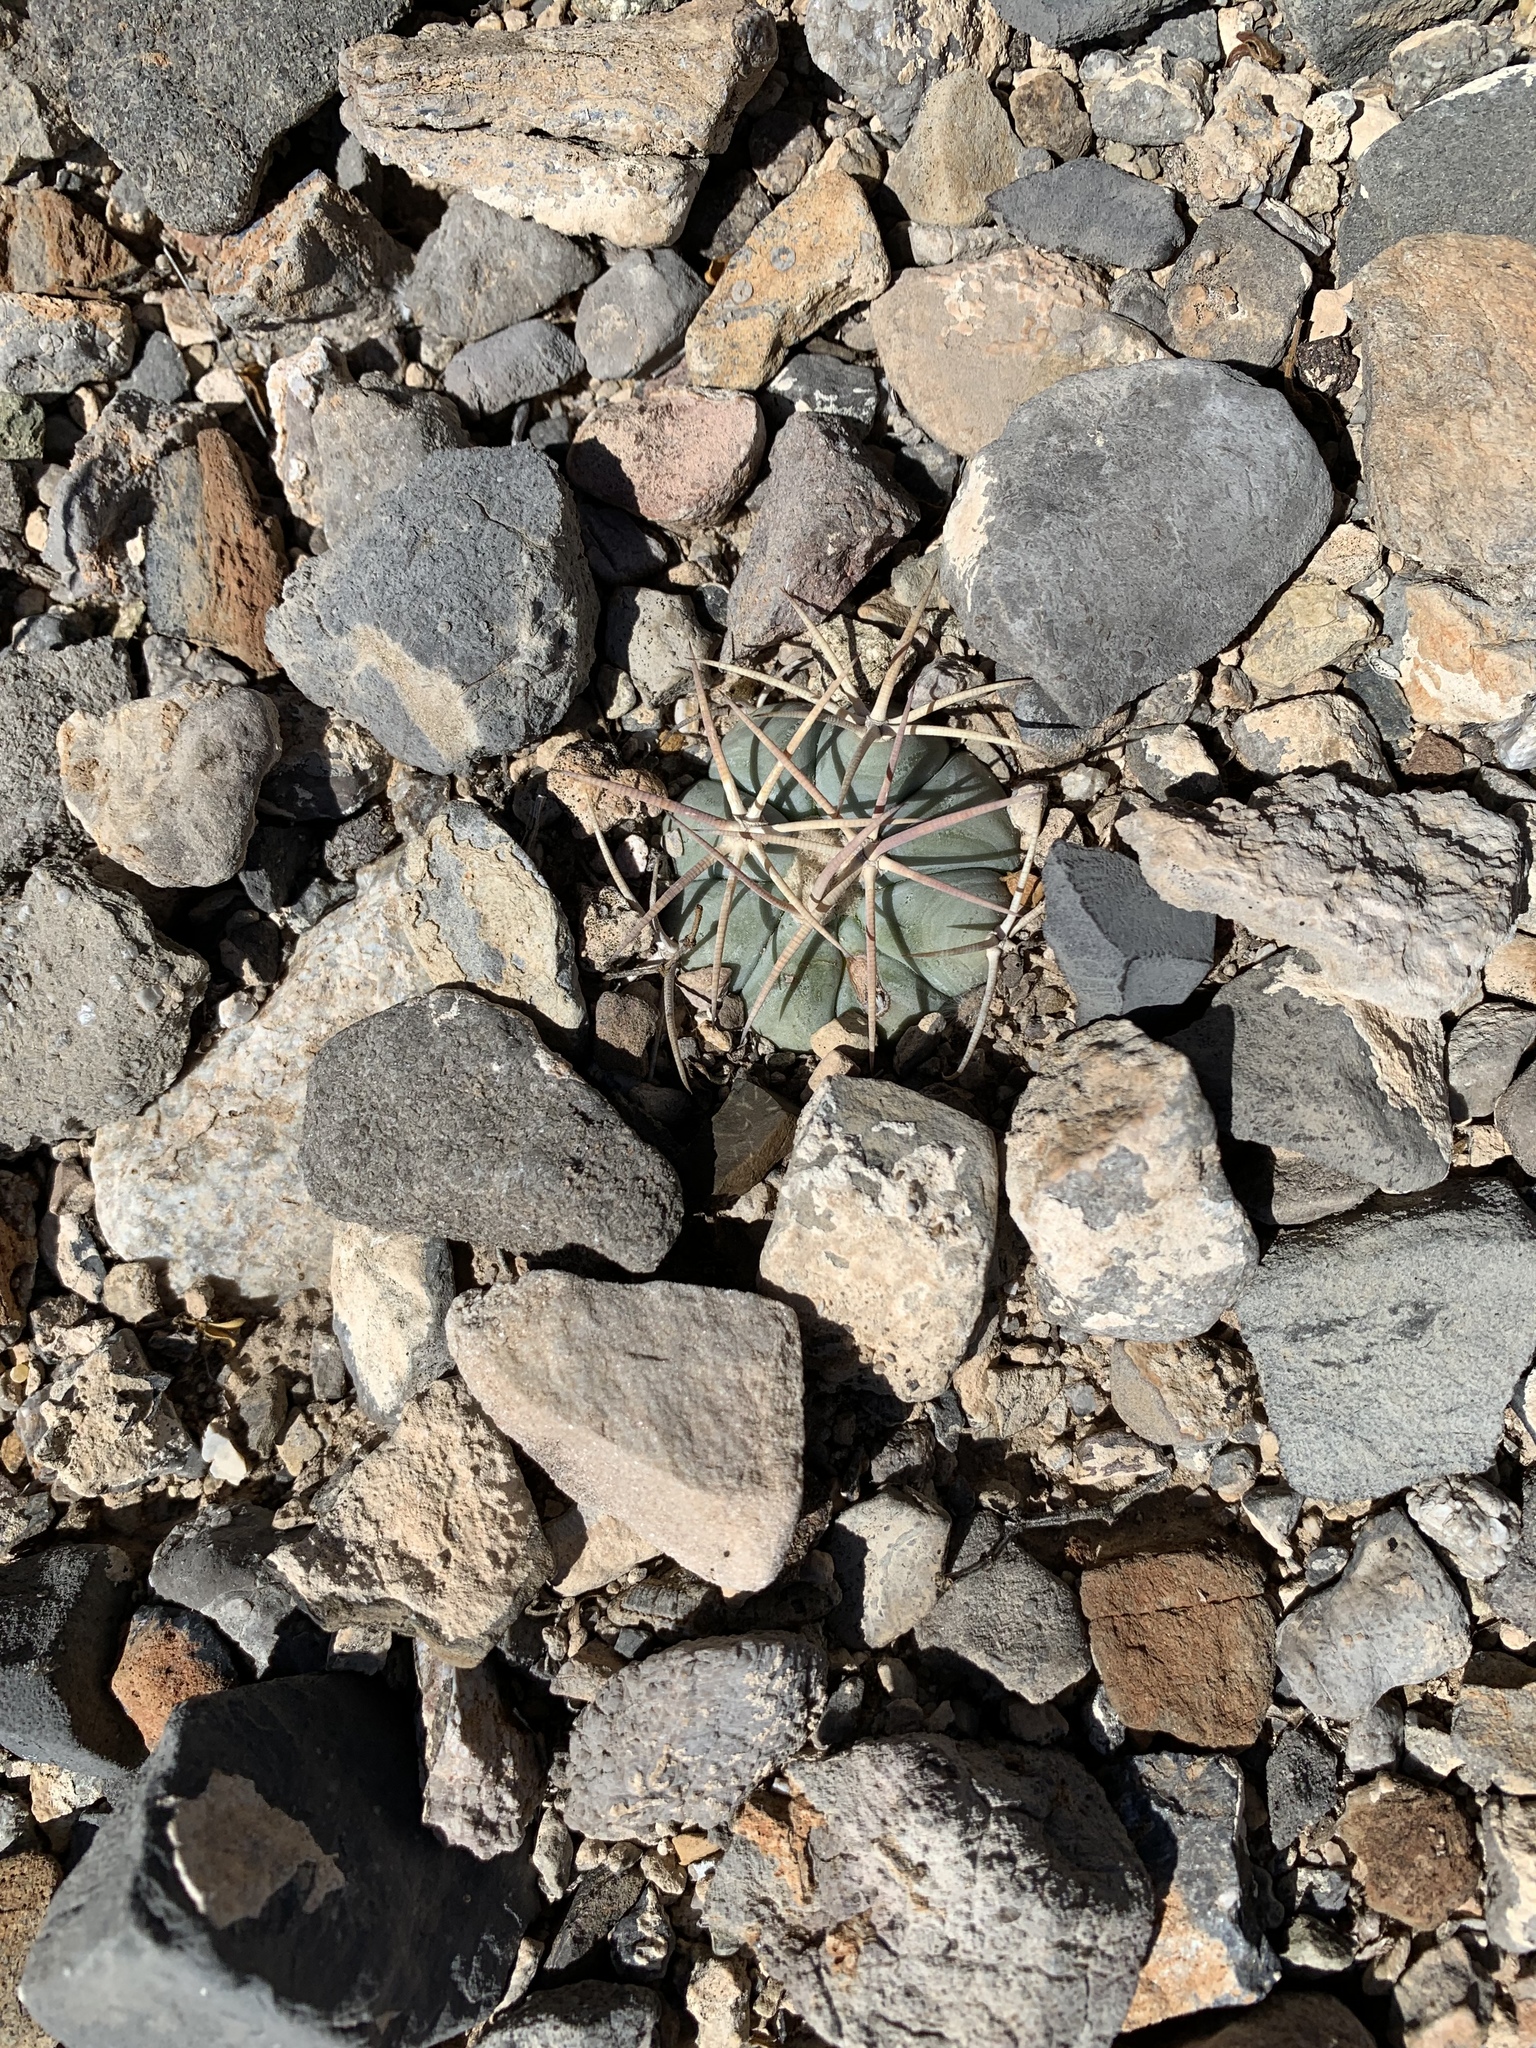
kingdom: Plantae
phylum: Tracheophyta
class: Magnoliopsida
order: Caryophyllales
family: Cactaceae
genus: Echinocactus
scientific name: Echinocactus horizonthalonius
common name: Devilshead
